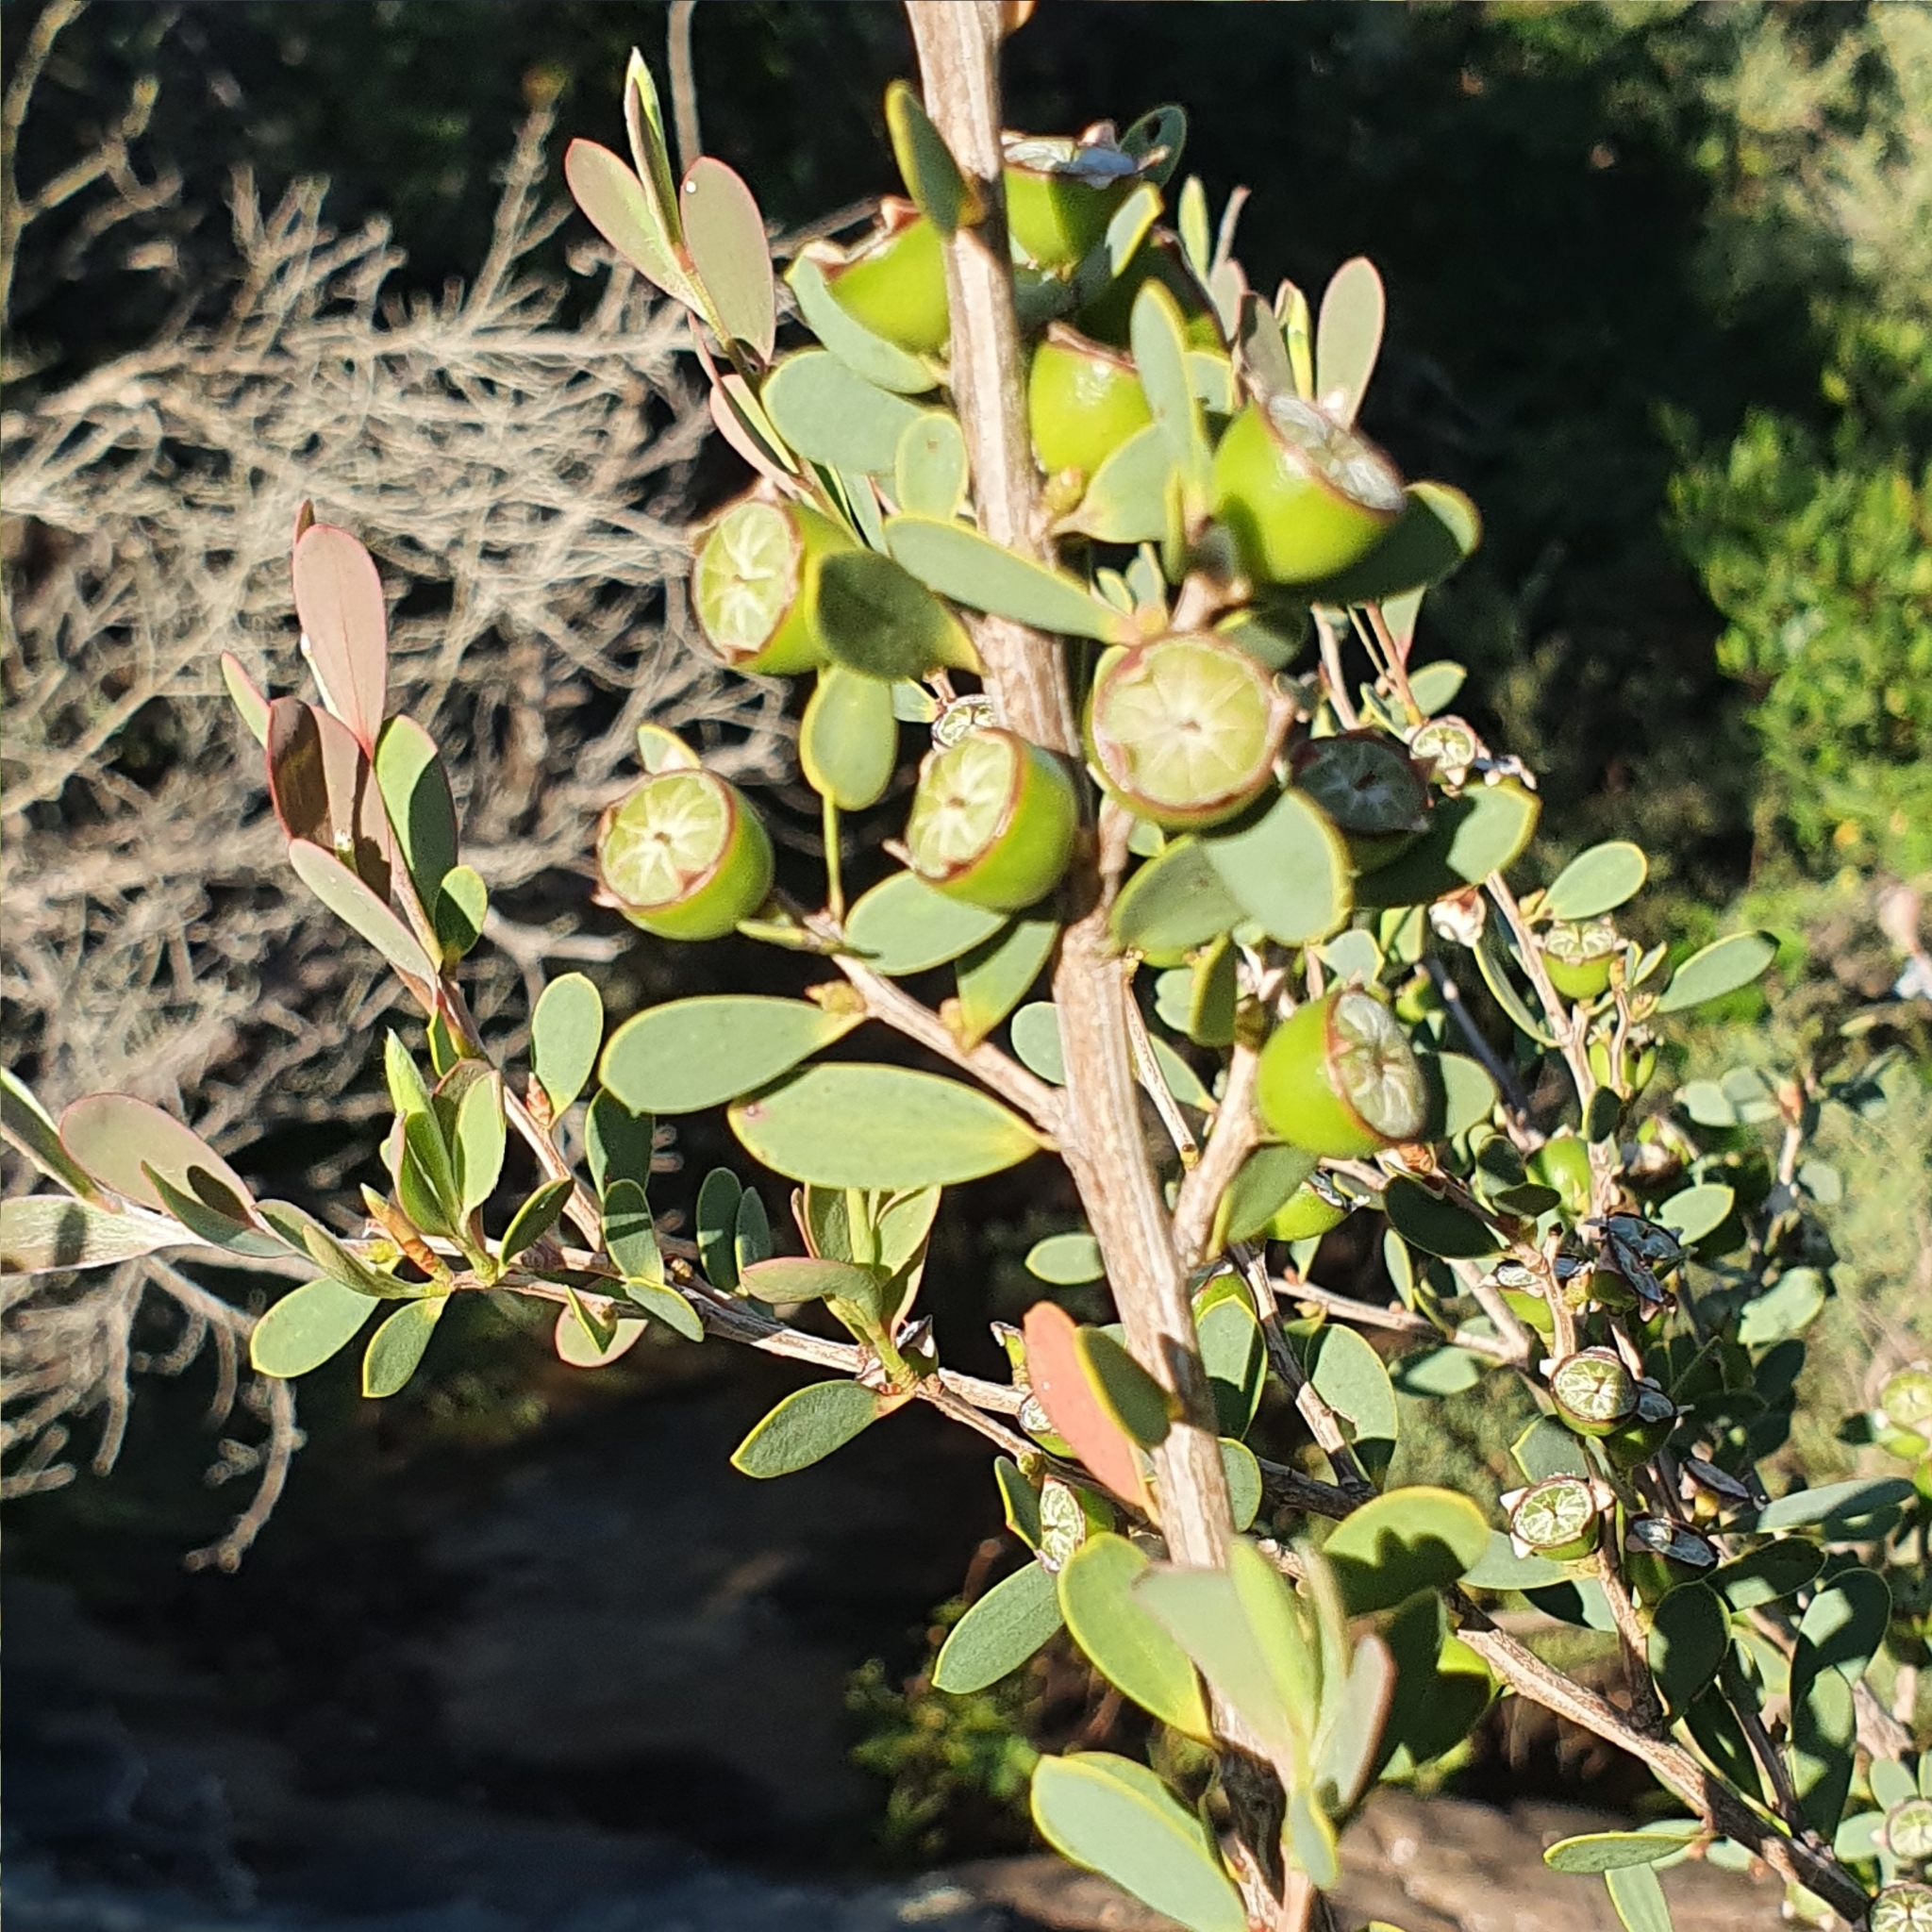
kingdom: Plantae
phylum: Tracheophyta
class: Magnoliopsida
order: Myrtales
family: Myrtaceae
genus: Leptospermum
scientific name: Leptospermum laevigatum
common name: Australian teatree
